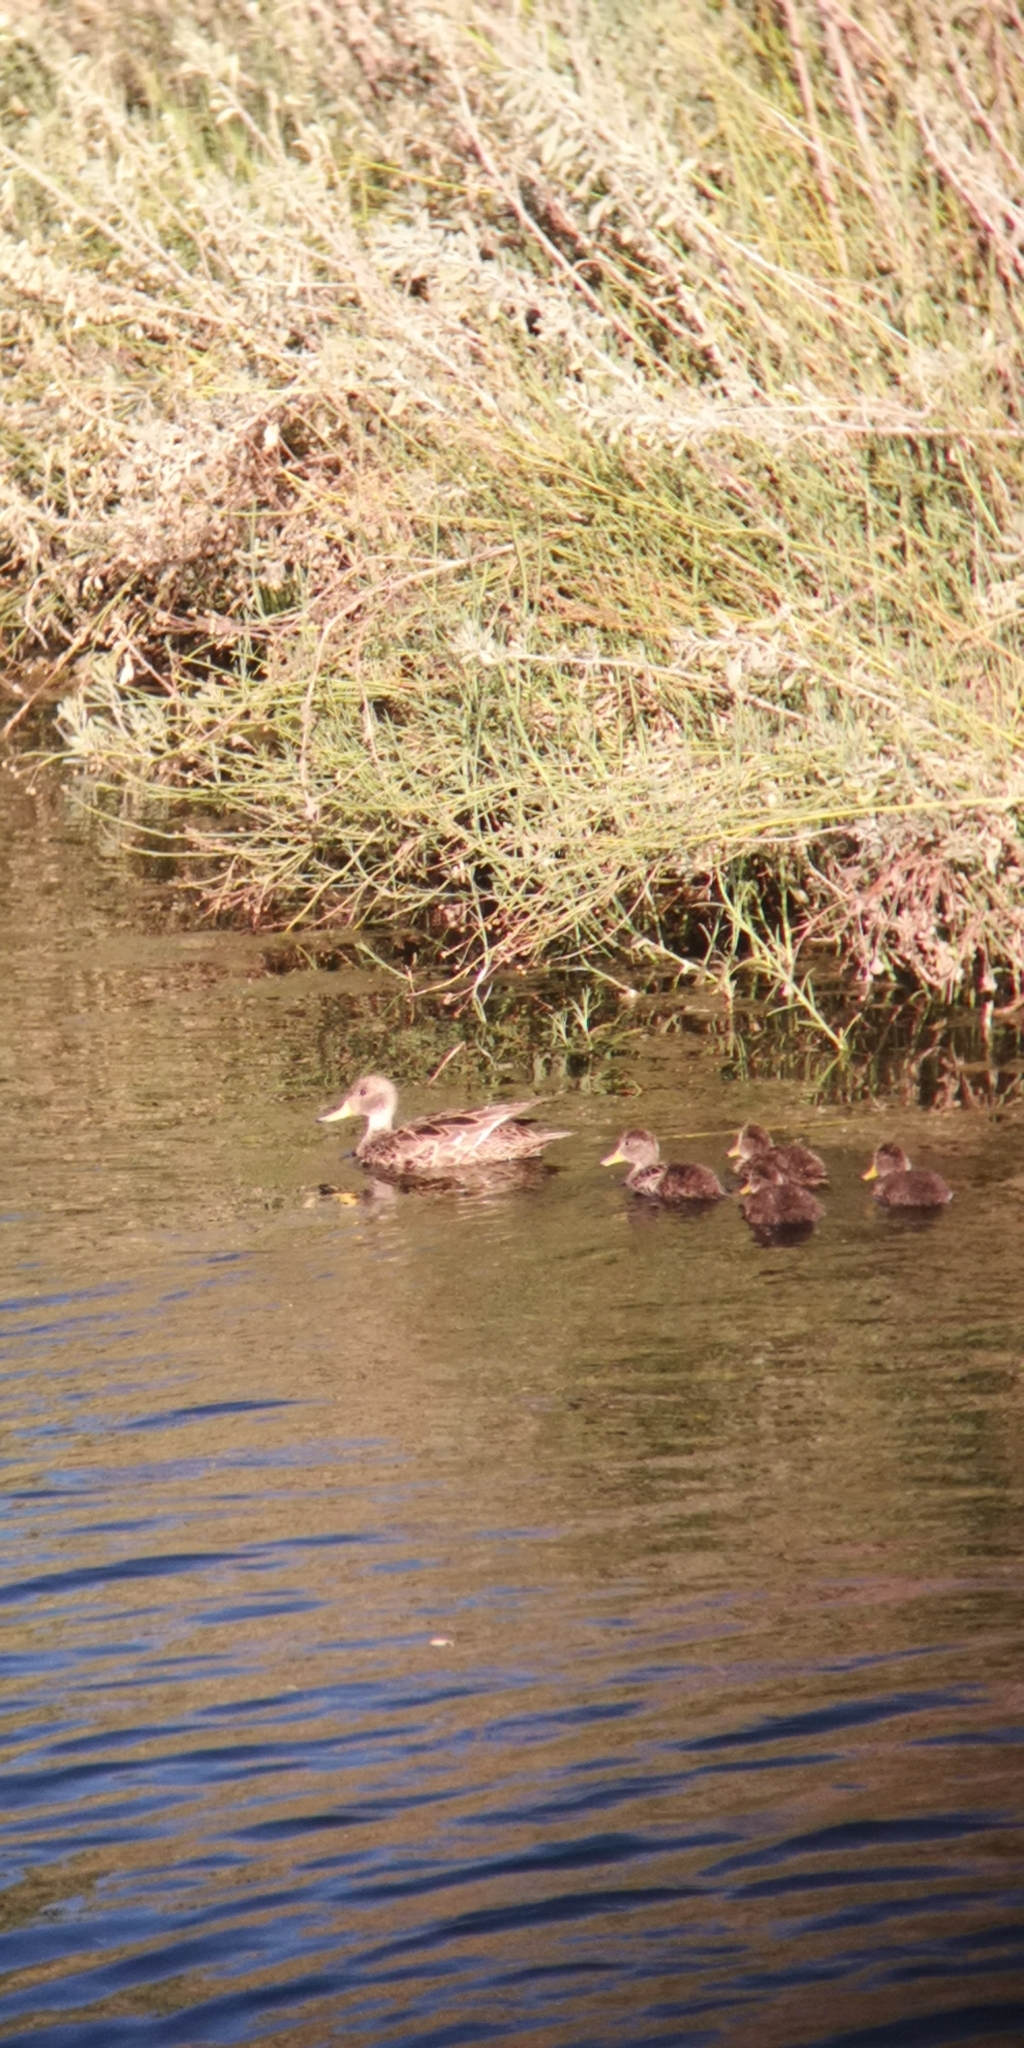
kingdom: Animalia
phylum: Chordata
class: Aves
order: Anseriformes
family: Anatidae
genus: Anas
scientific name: Anas georgica
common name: Yellow-billed pintail
